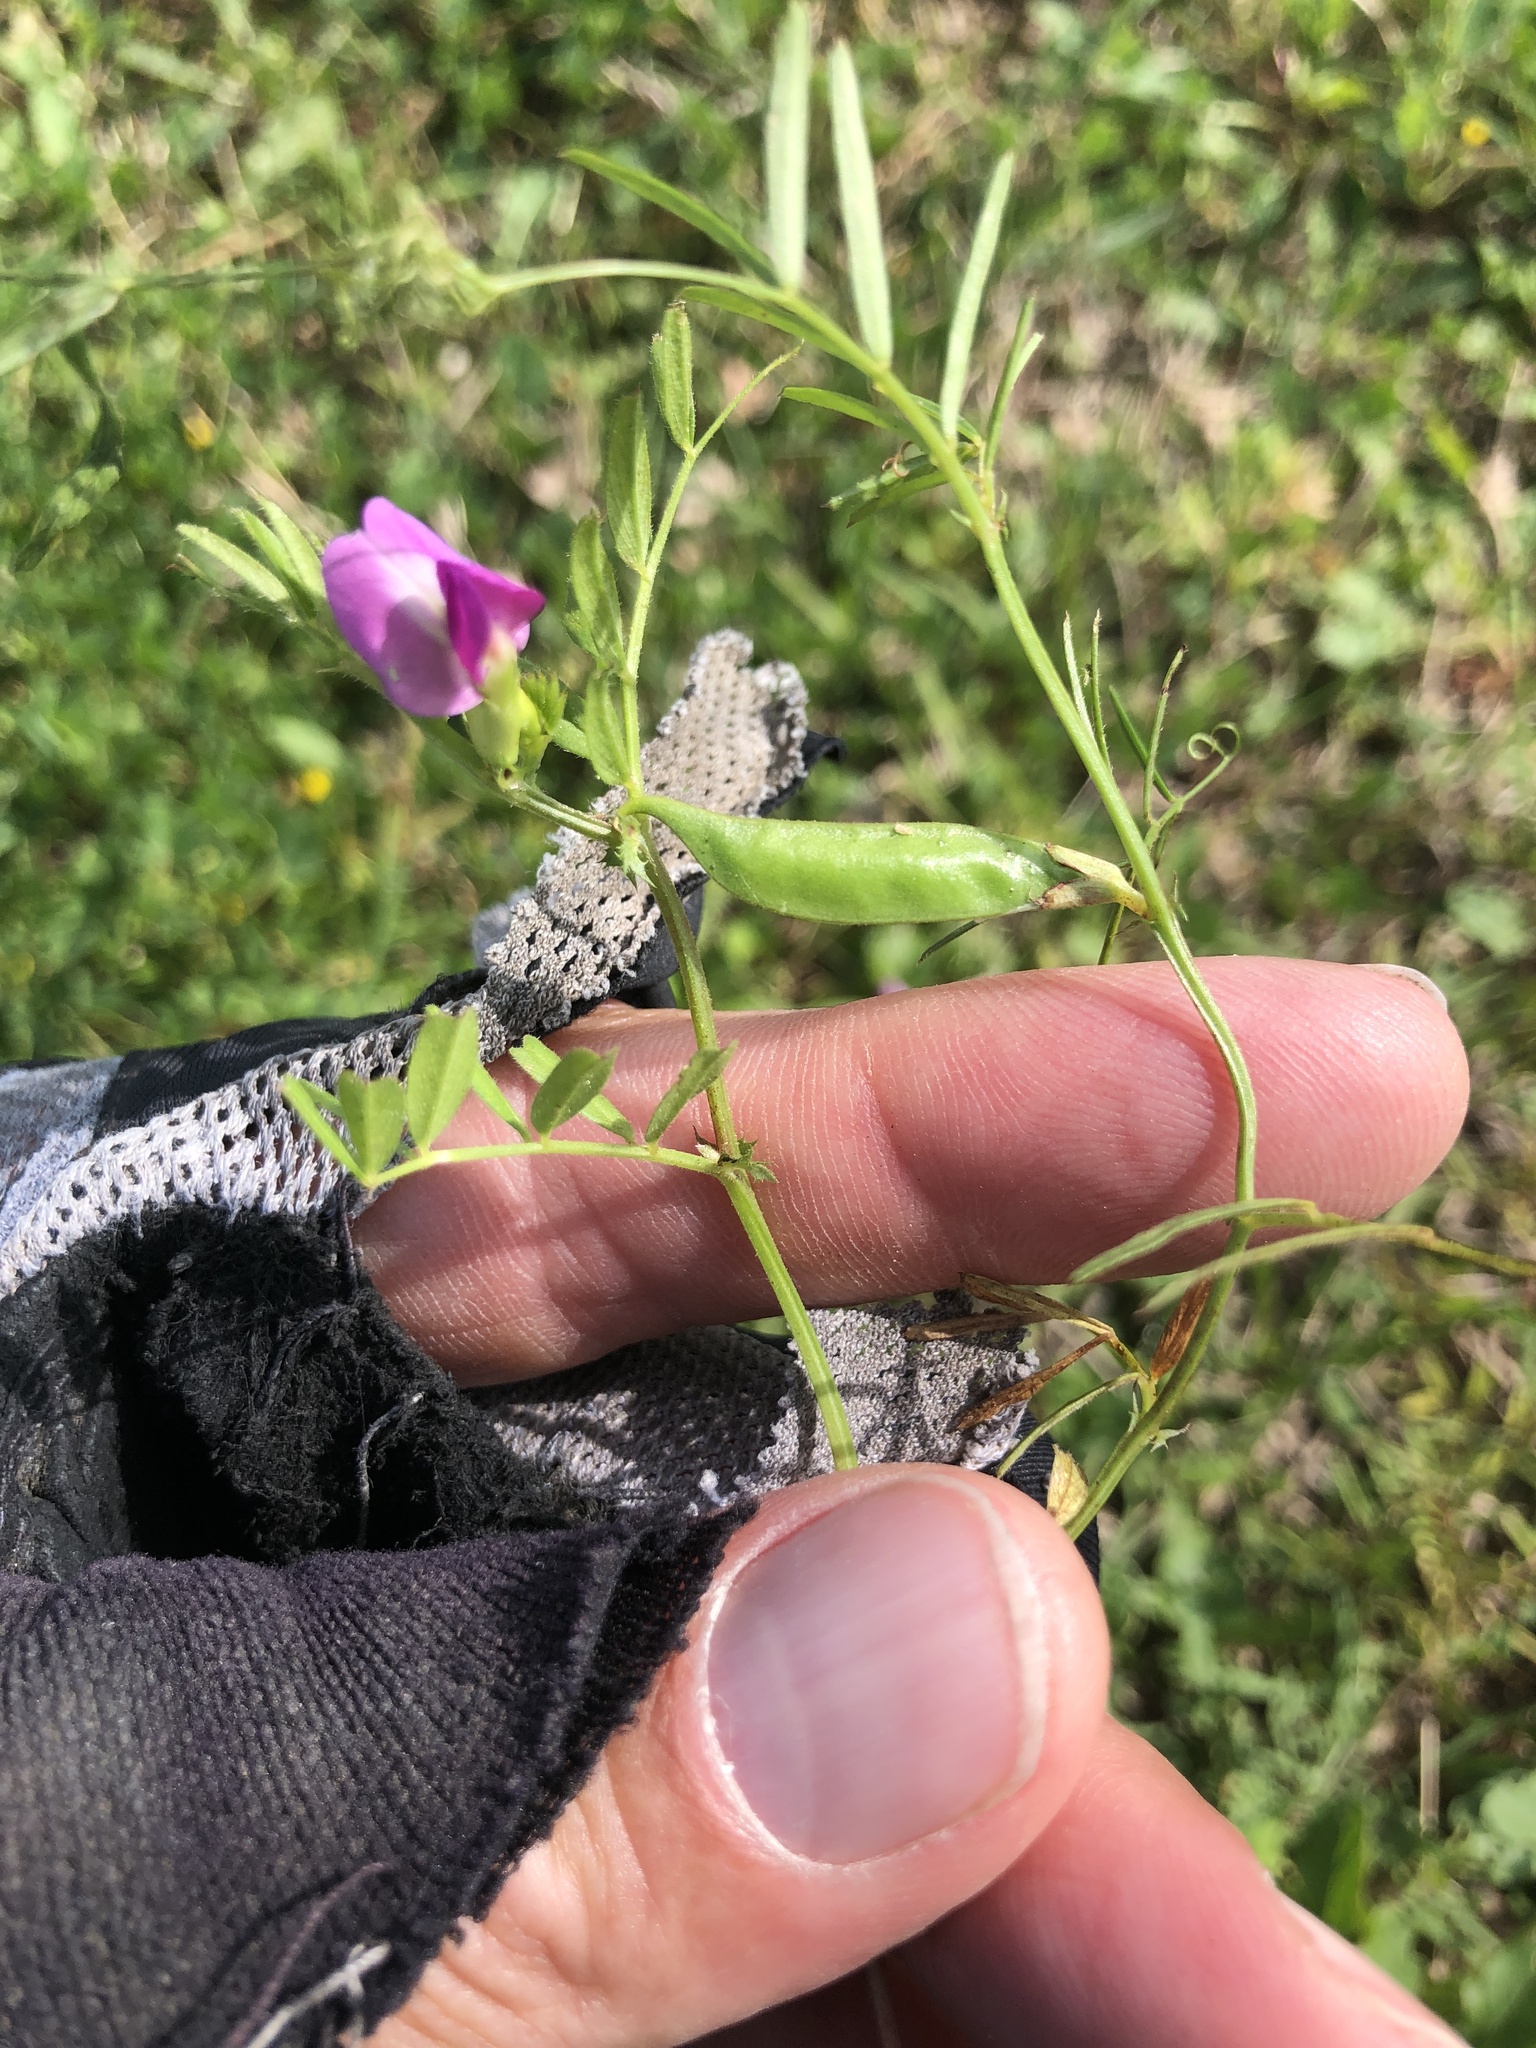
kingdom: Plantae
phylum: Tracheophyta
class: Magnoliopsida
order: Fabales
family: Fabaceae
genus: Vicia
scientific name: Vicia sativa
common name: Garden vetch
